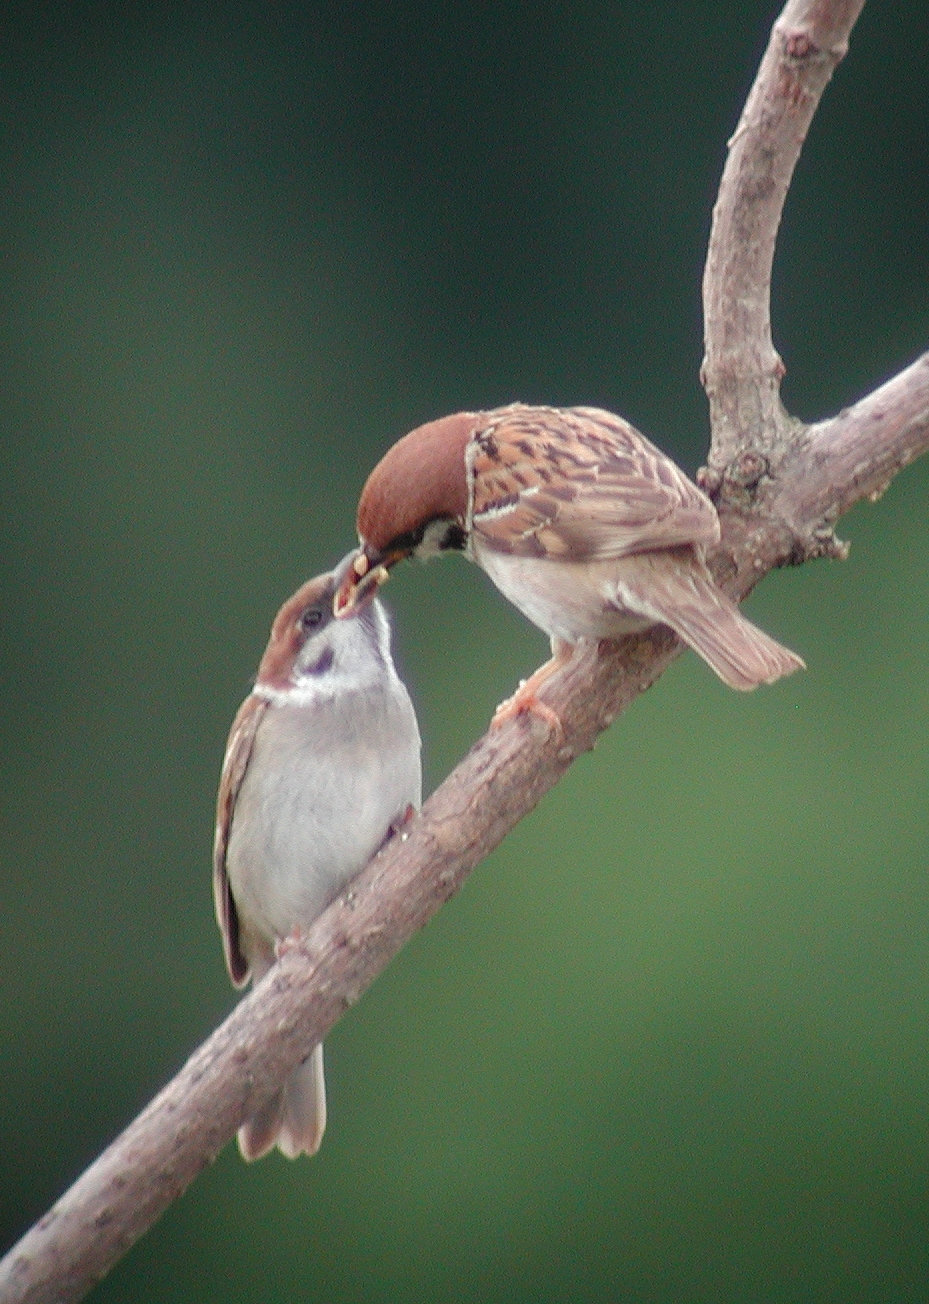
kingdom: Animalia
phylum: Chordata
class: Aves
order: Passeriformes
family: Passeridae
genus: Passer
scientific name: Passer montanus
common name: Eurasian tree sparrow
